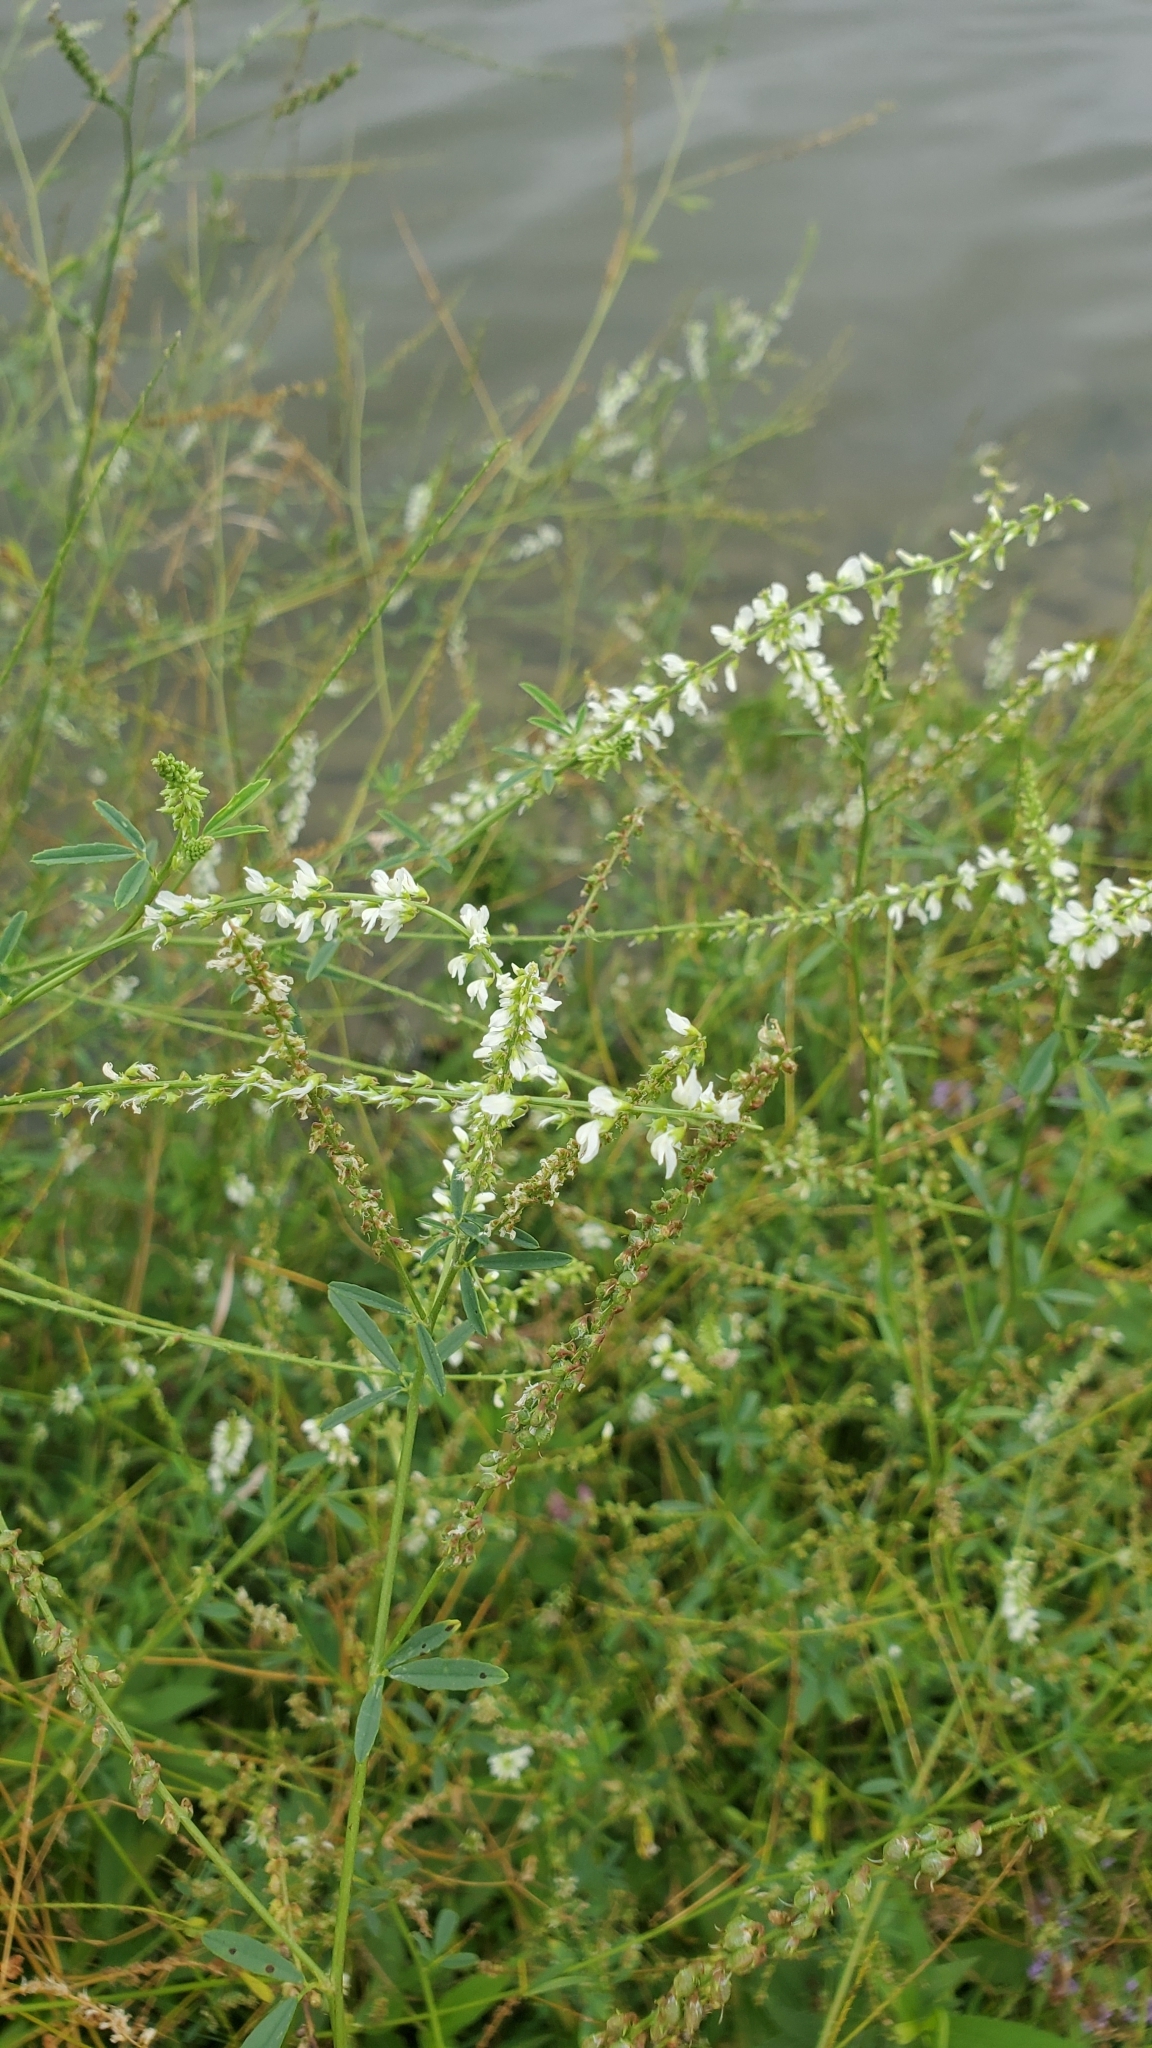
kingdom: Plantae
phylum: Tracheophyta
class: Magnoliopsida
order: Fabales
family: Fabaceae
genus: Melilotus
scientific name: Melilotus albus
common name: White melilot
